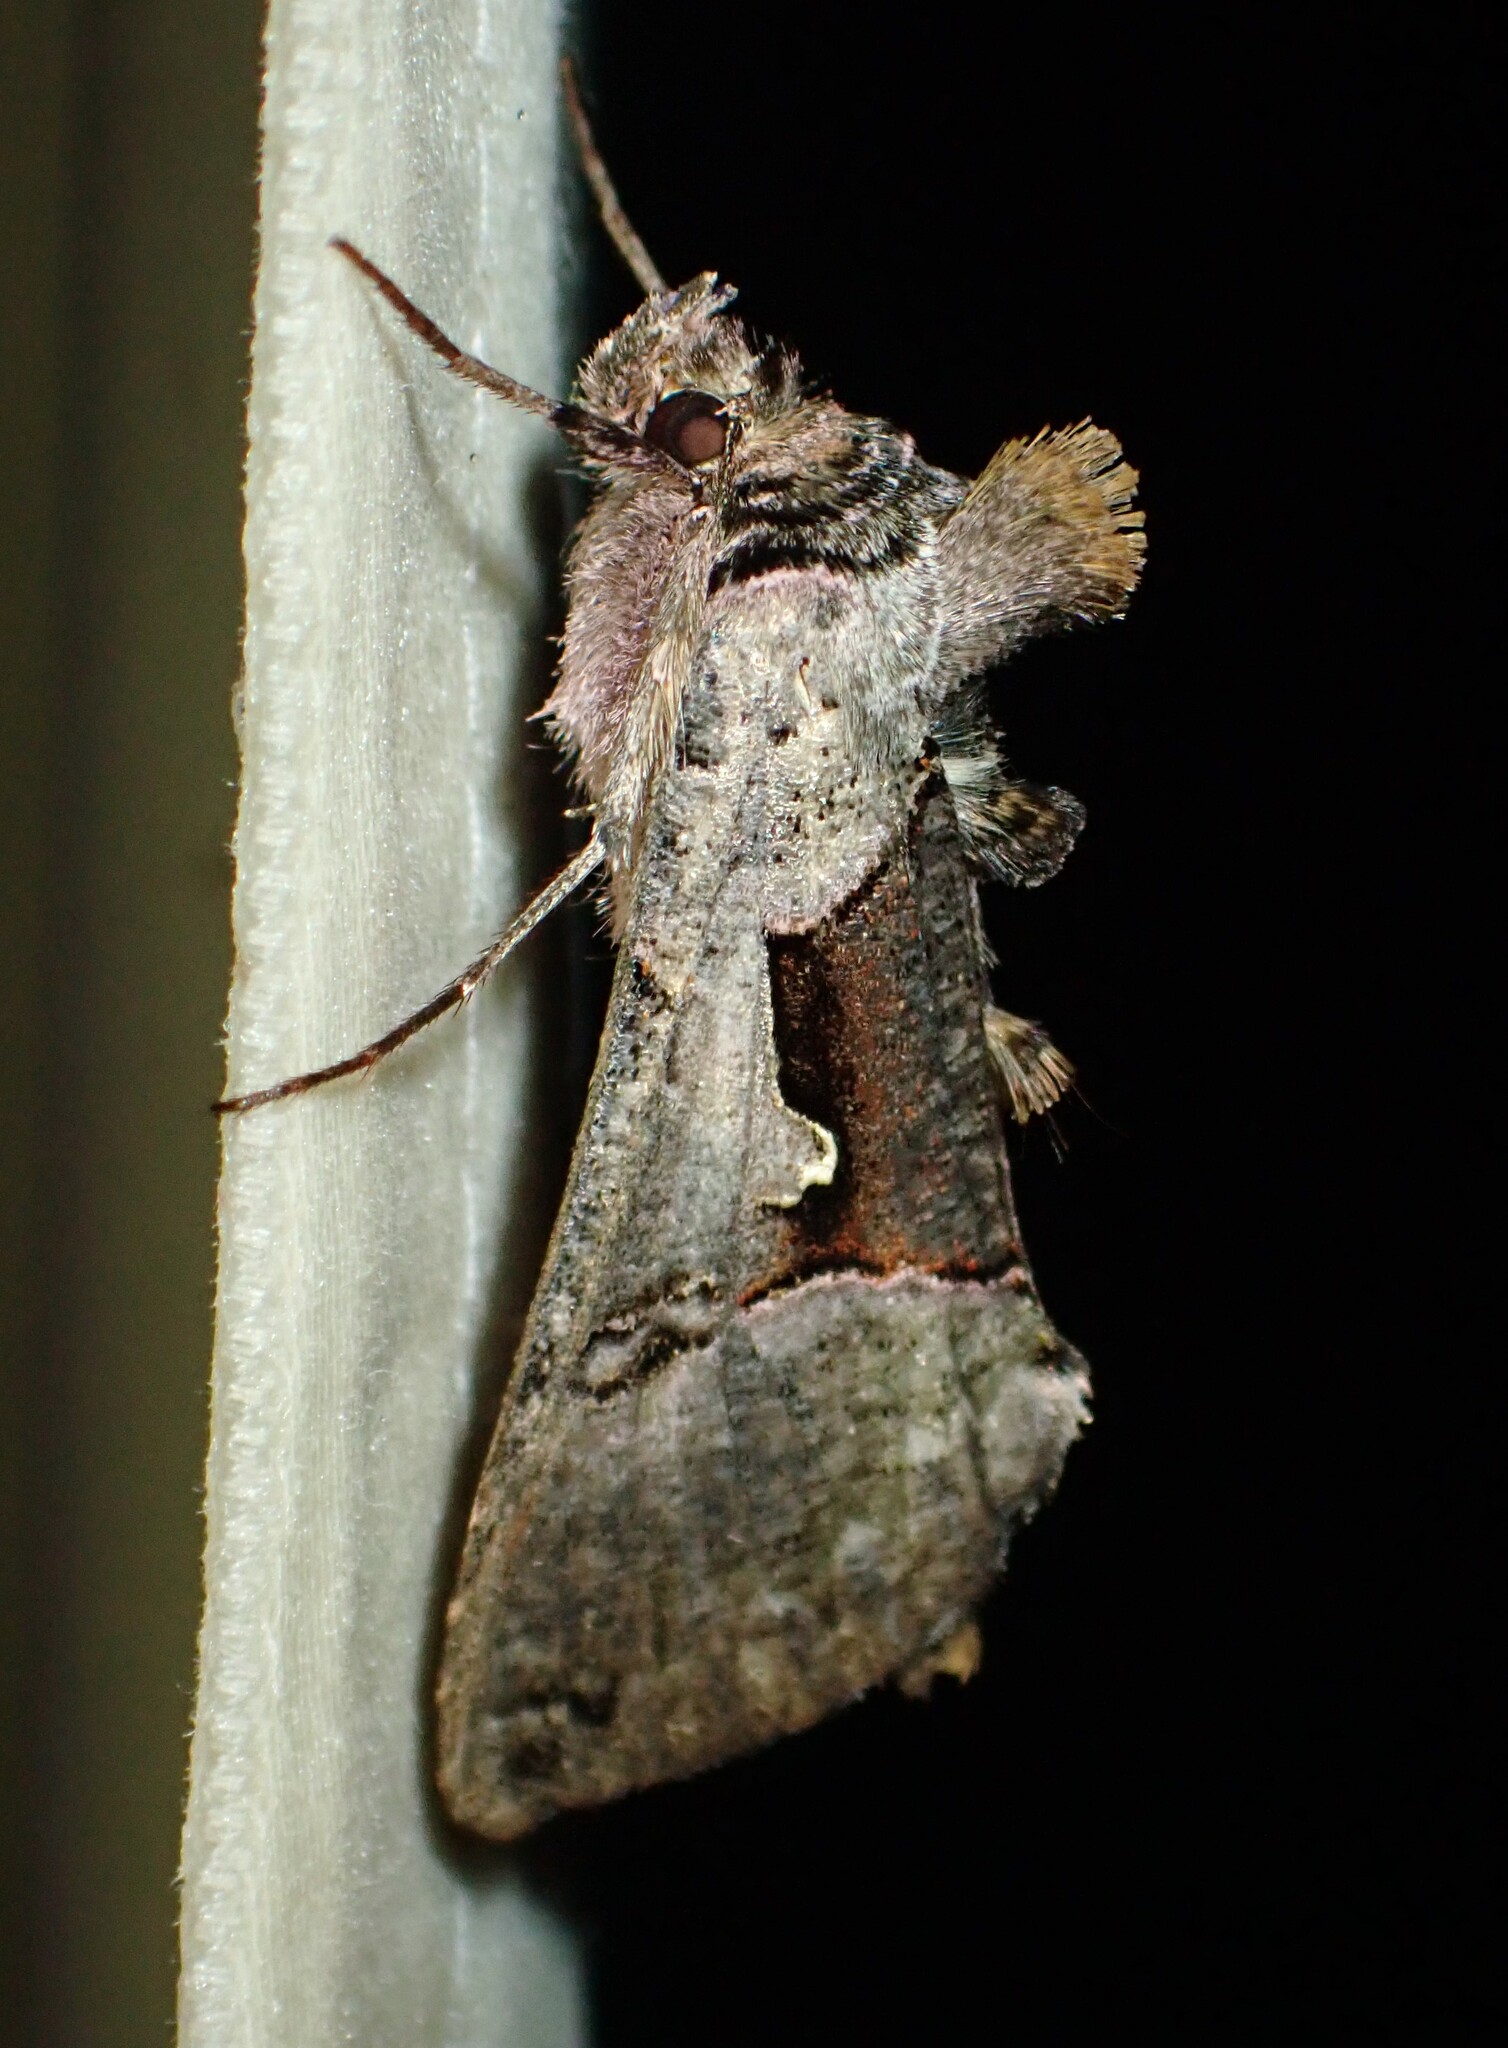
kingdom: Animalia
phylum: Arthropoda
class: Insecta
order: Lepidoptera
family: Noctuidae
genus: Autographa
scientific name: Autographa ampla
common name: Large looper moth
